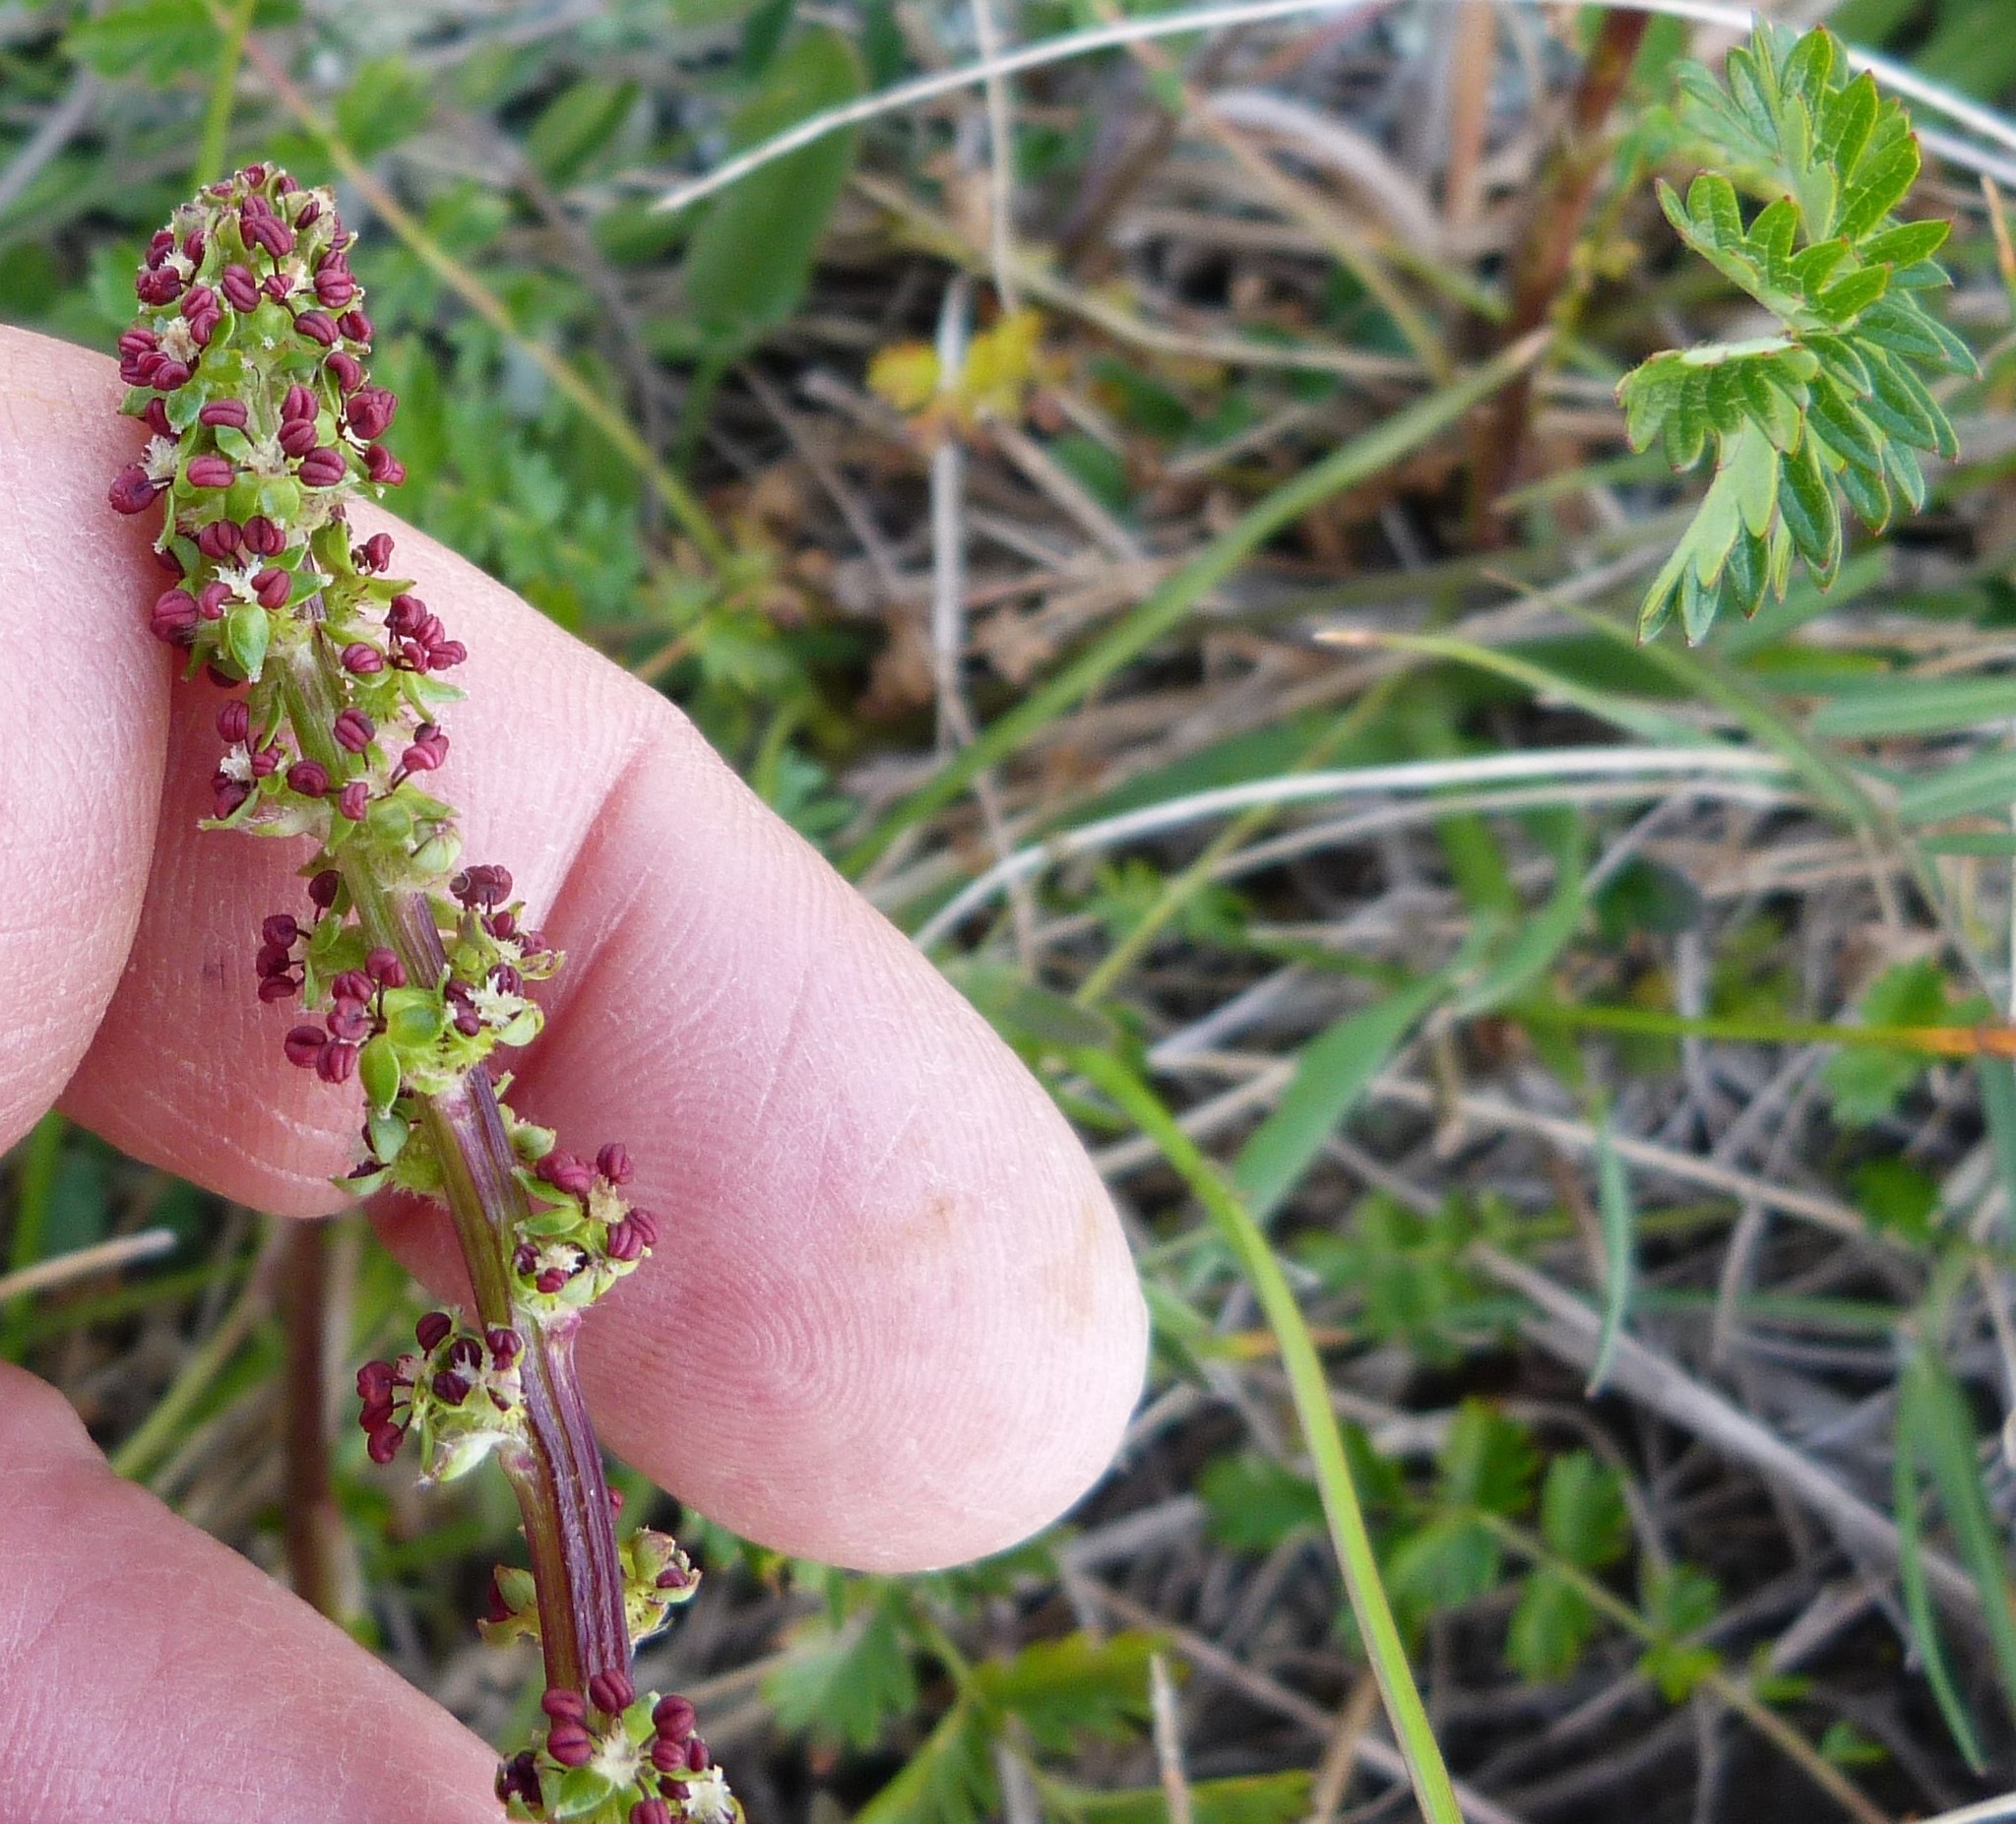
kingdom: Plantae
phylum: Tracheophyta
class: Magnoliopsida
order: Rosales
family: Rosaceae
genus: Acaena
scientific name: Acaena agnipila
